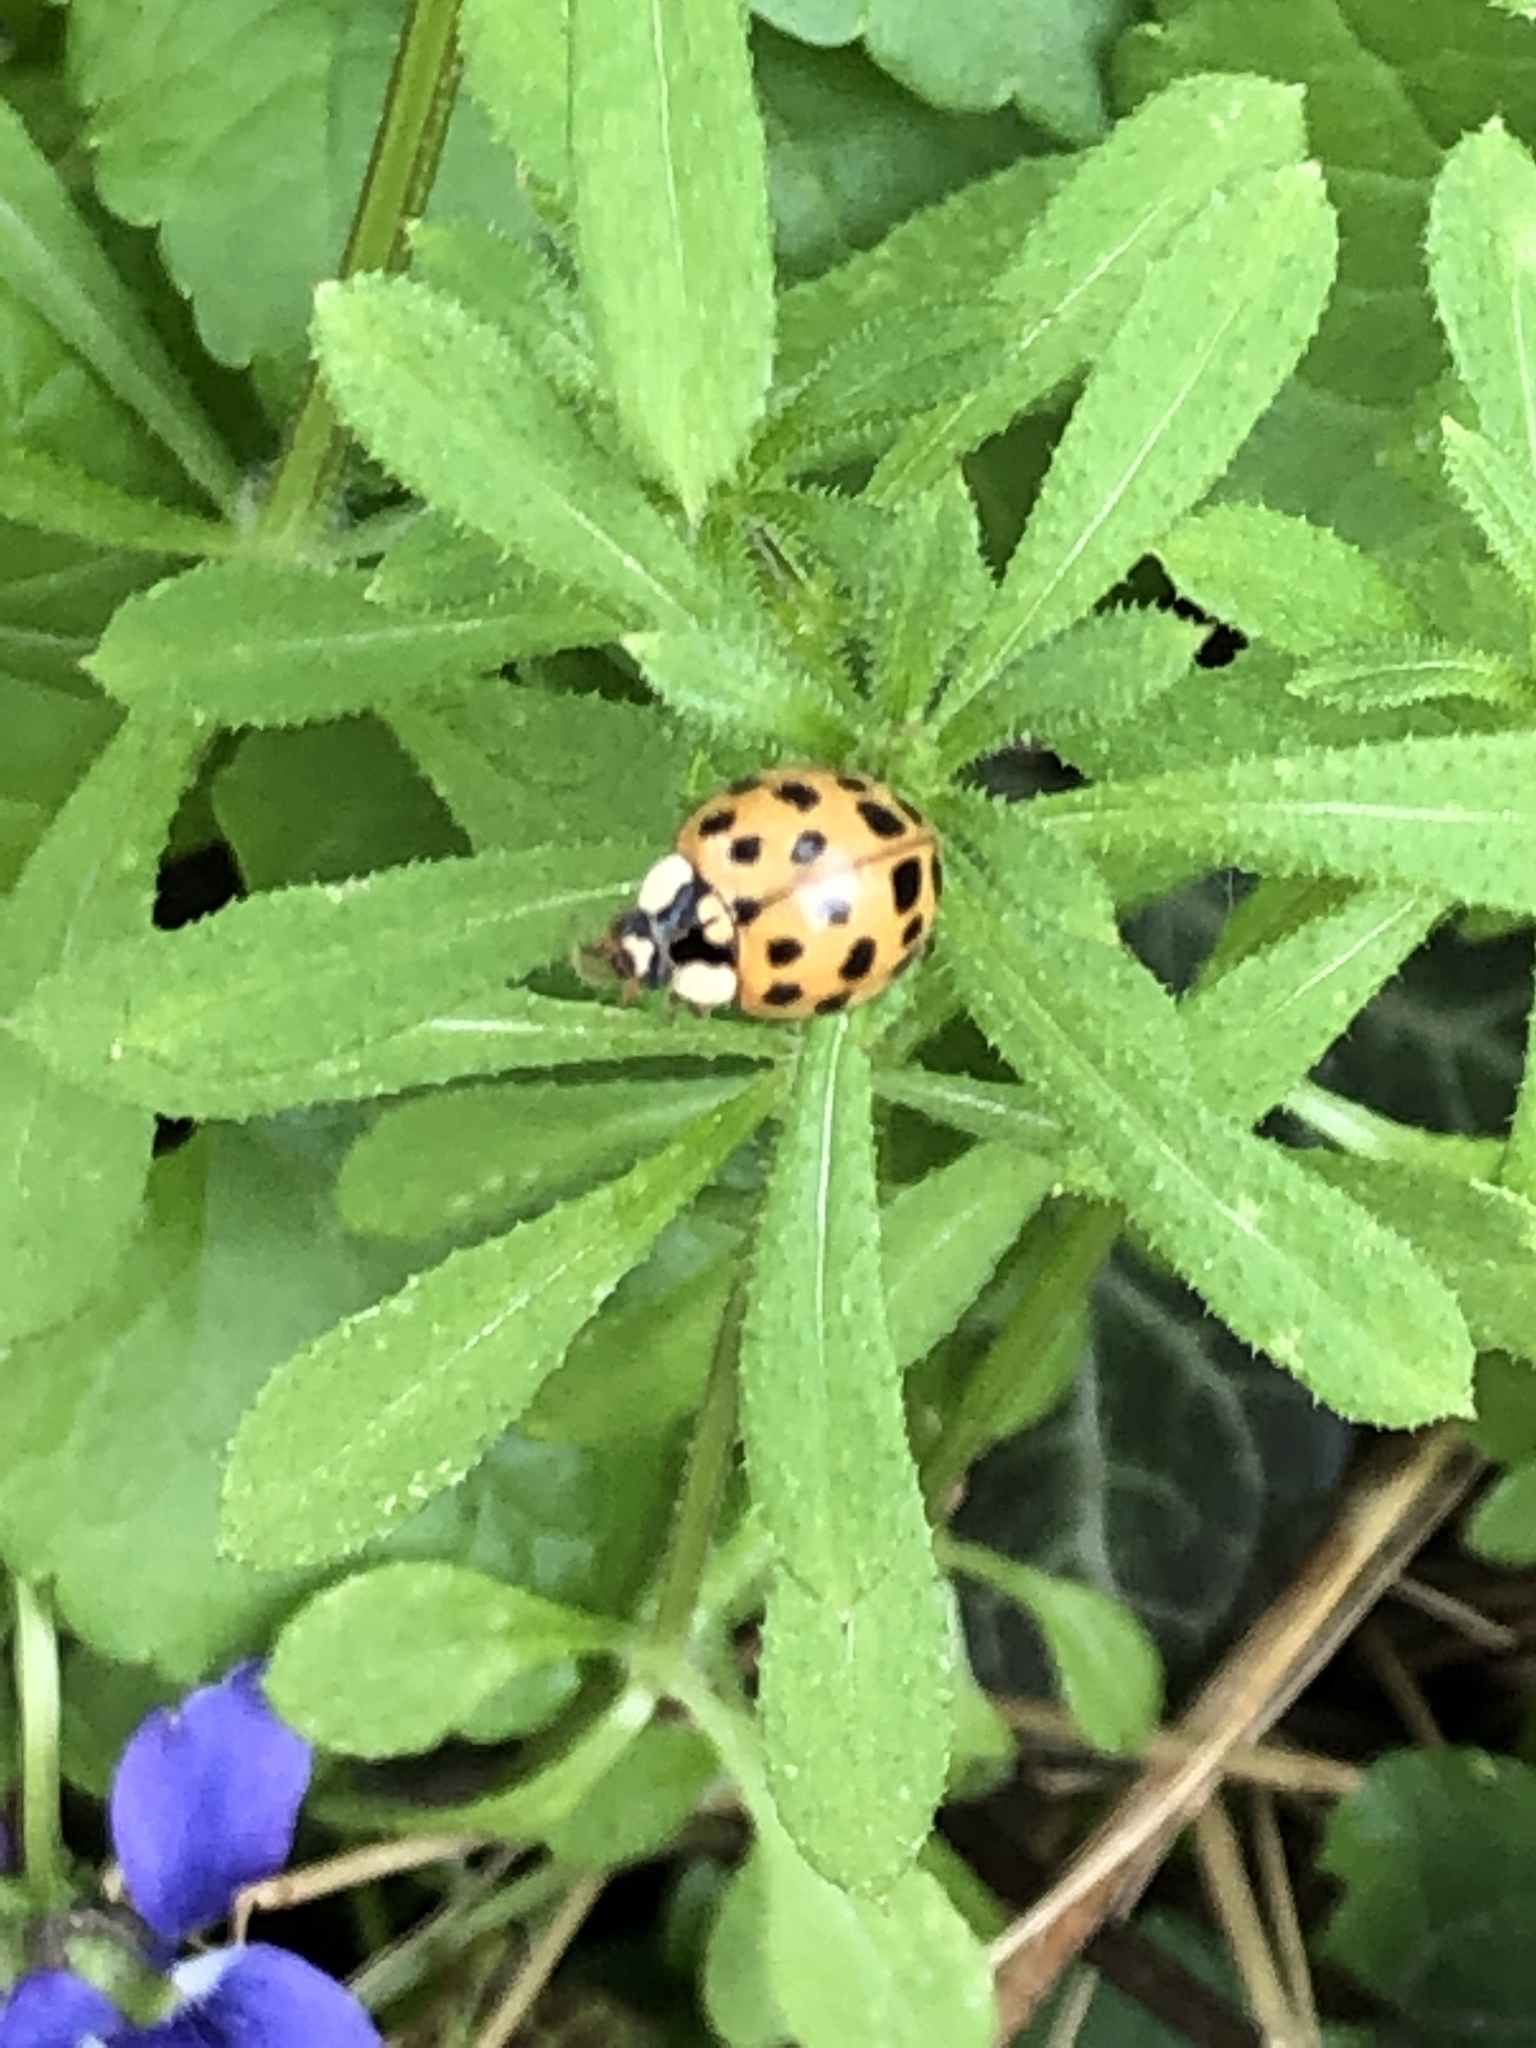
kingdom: Animalia
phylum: Arthropoda
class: Insecta
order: Coleoptera
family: Coccinellidae
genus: Harmonia
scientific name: Harmonia axyridis
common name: Harlequin ladybird
